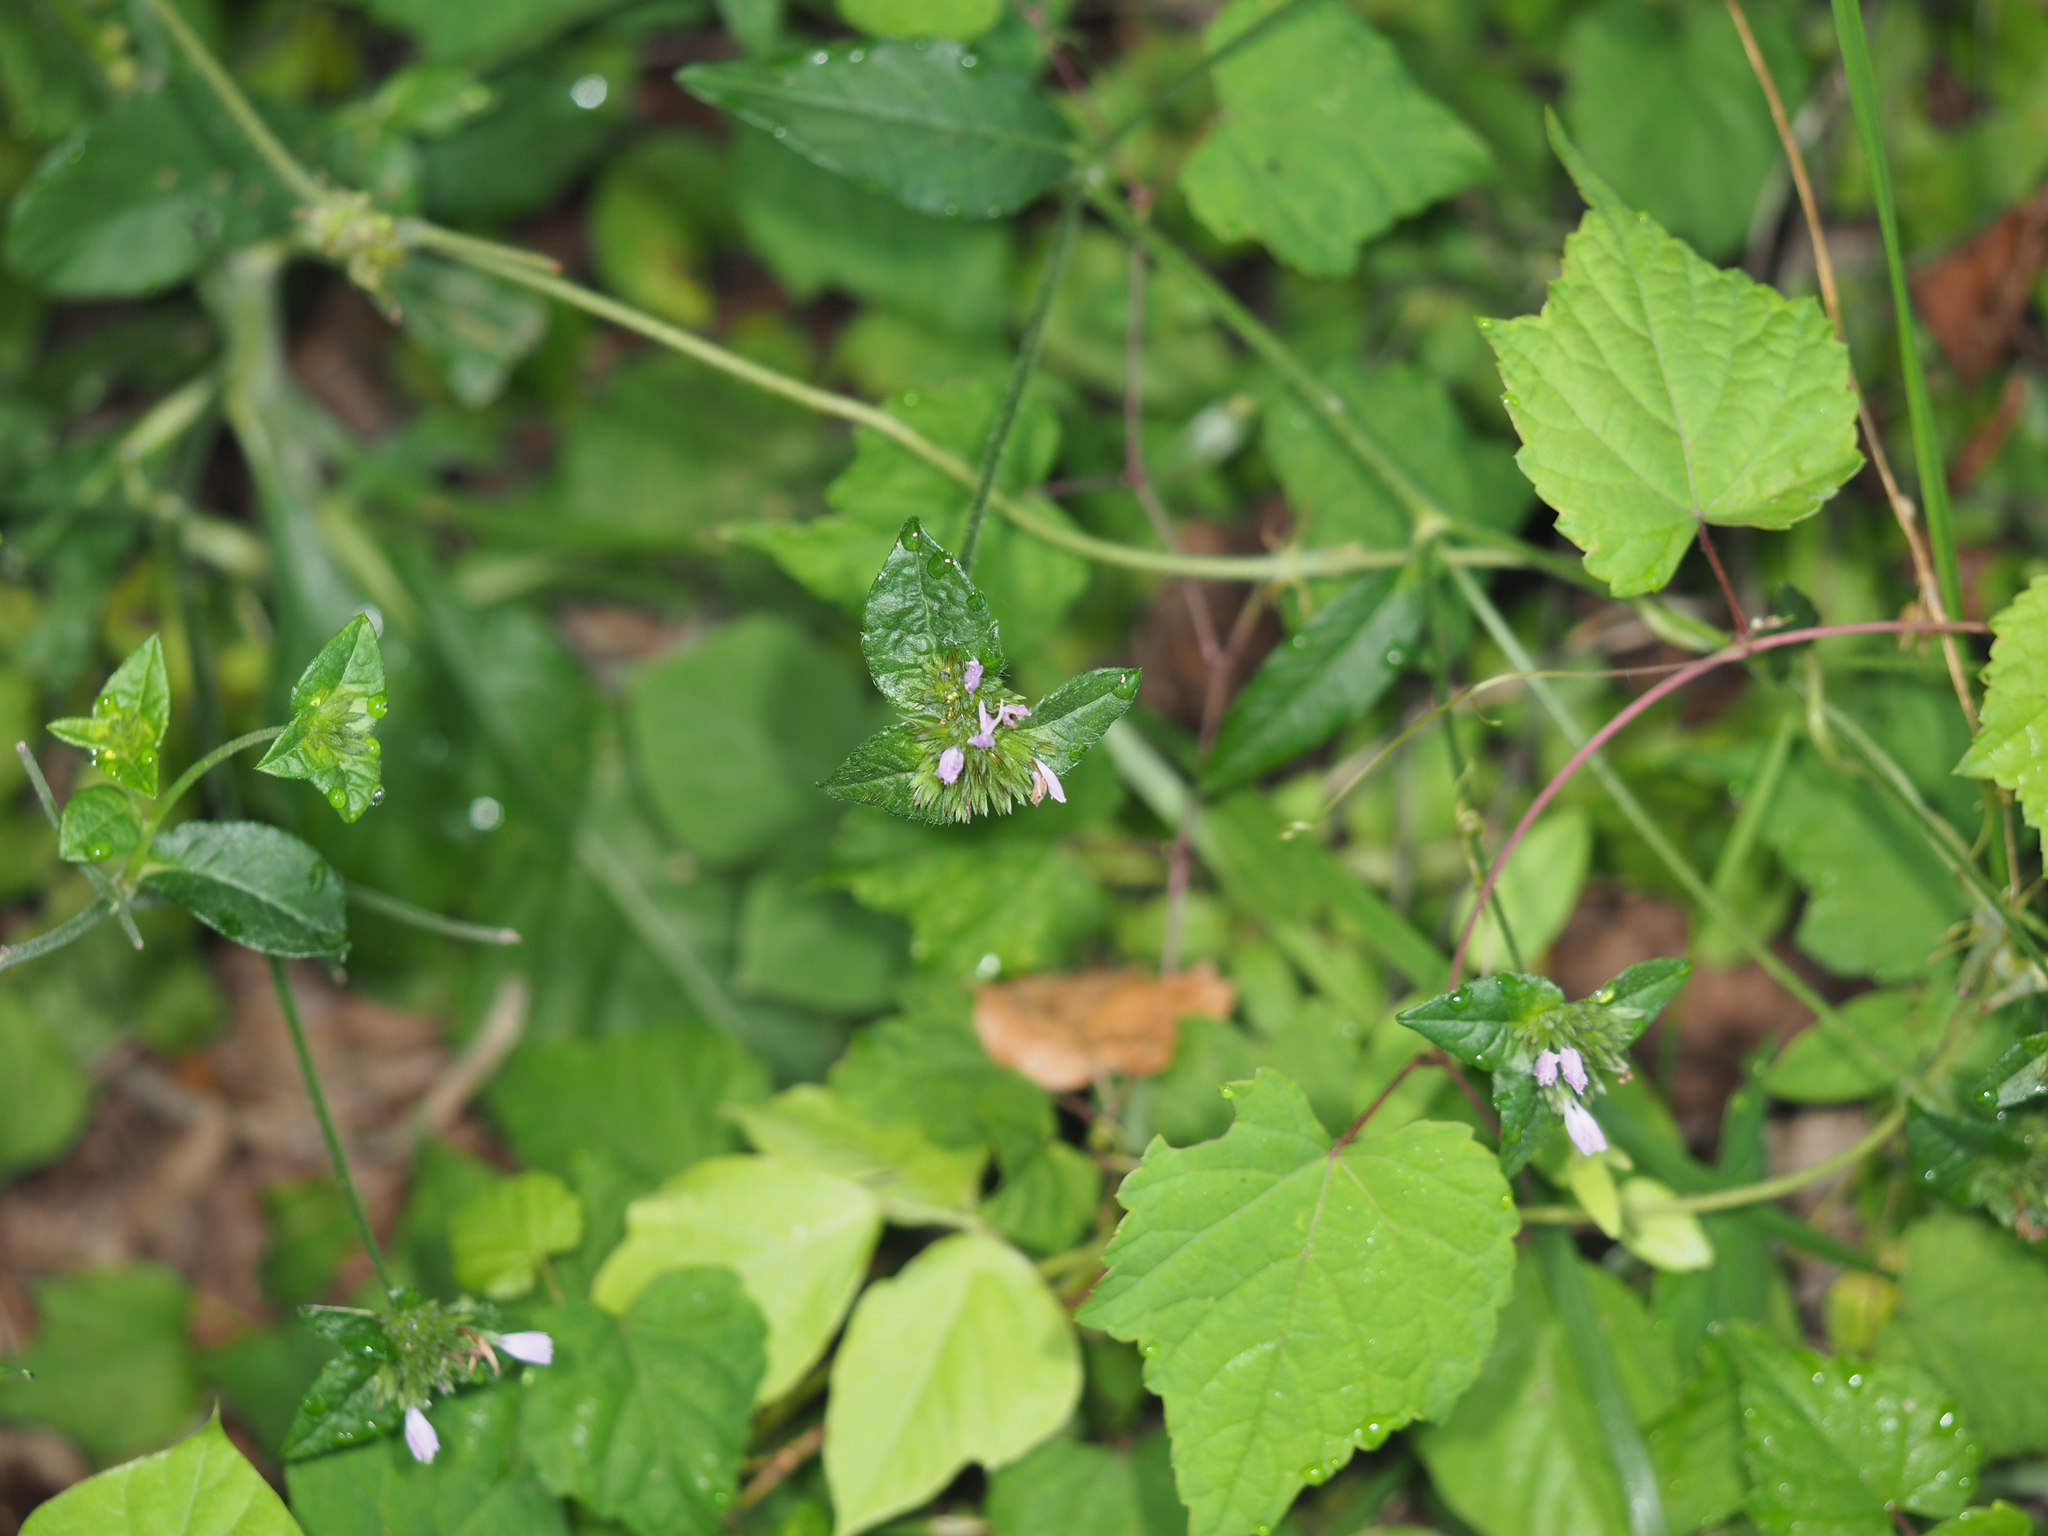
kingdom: Plantae
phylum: Tracheophyta
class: Magnoliopsida
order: Asterales
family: Asteraceae
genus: Elephantopus
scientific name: Elephantopus carolinianus
